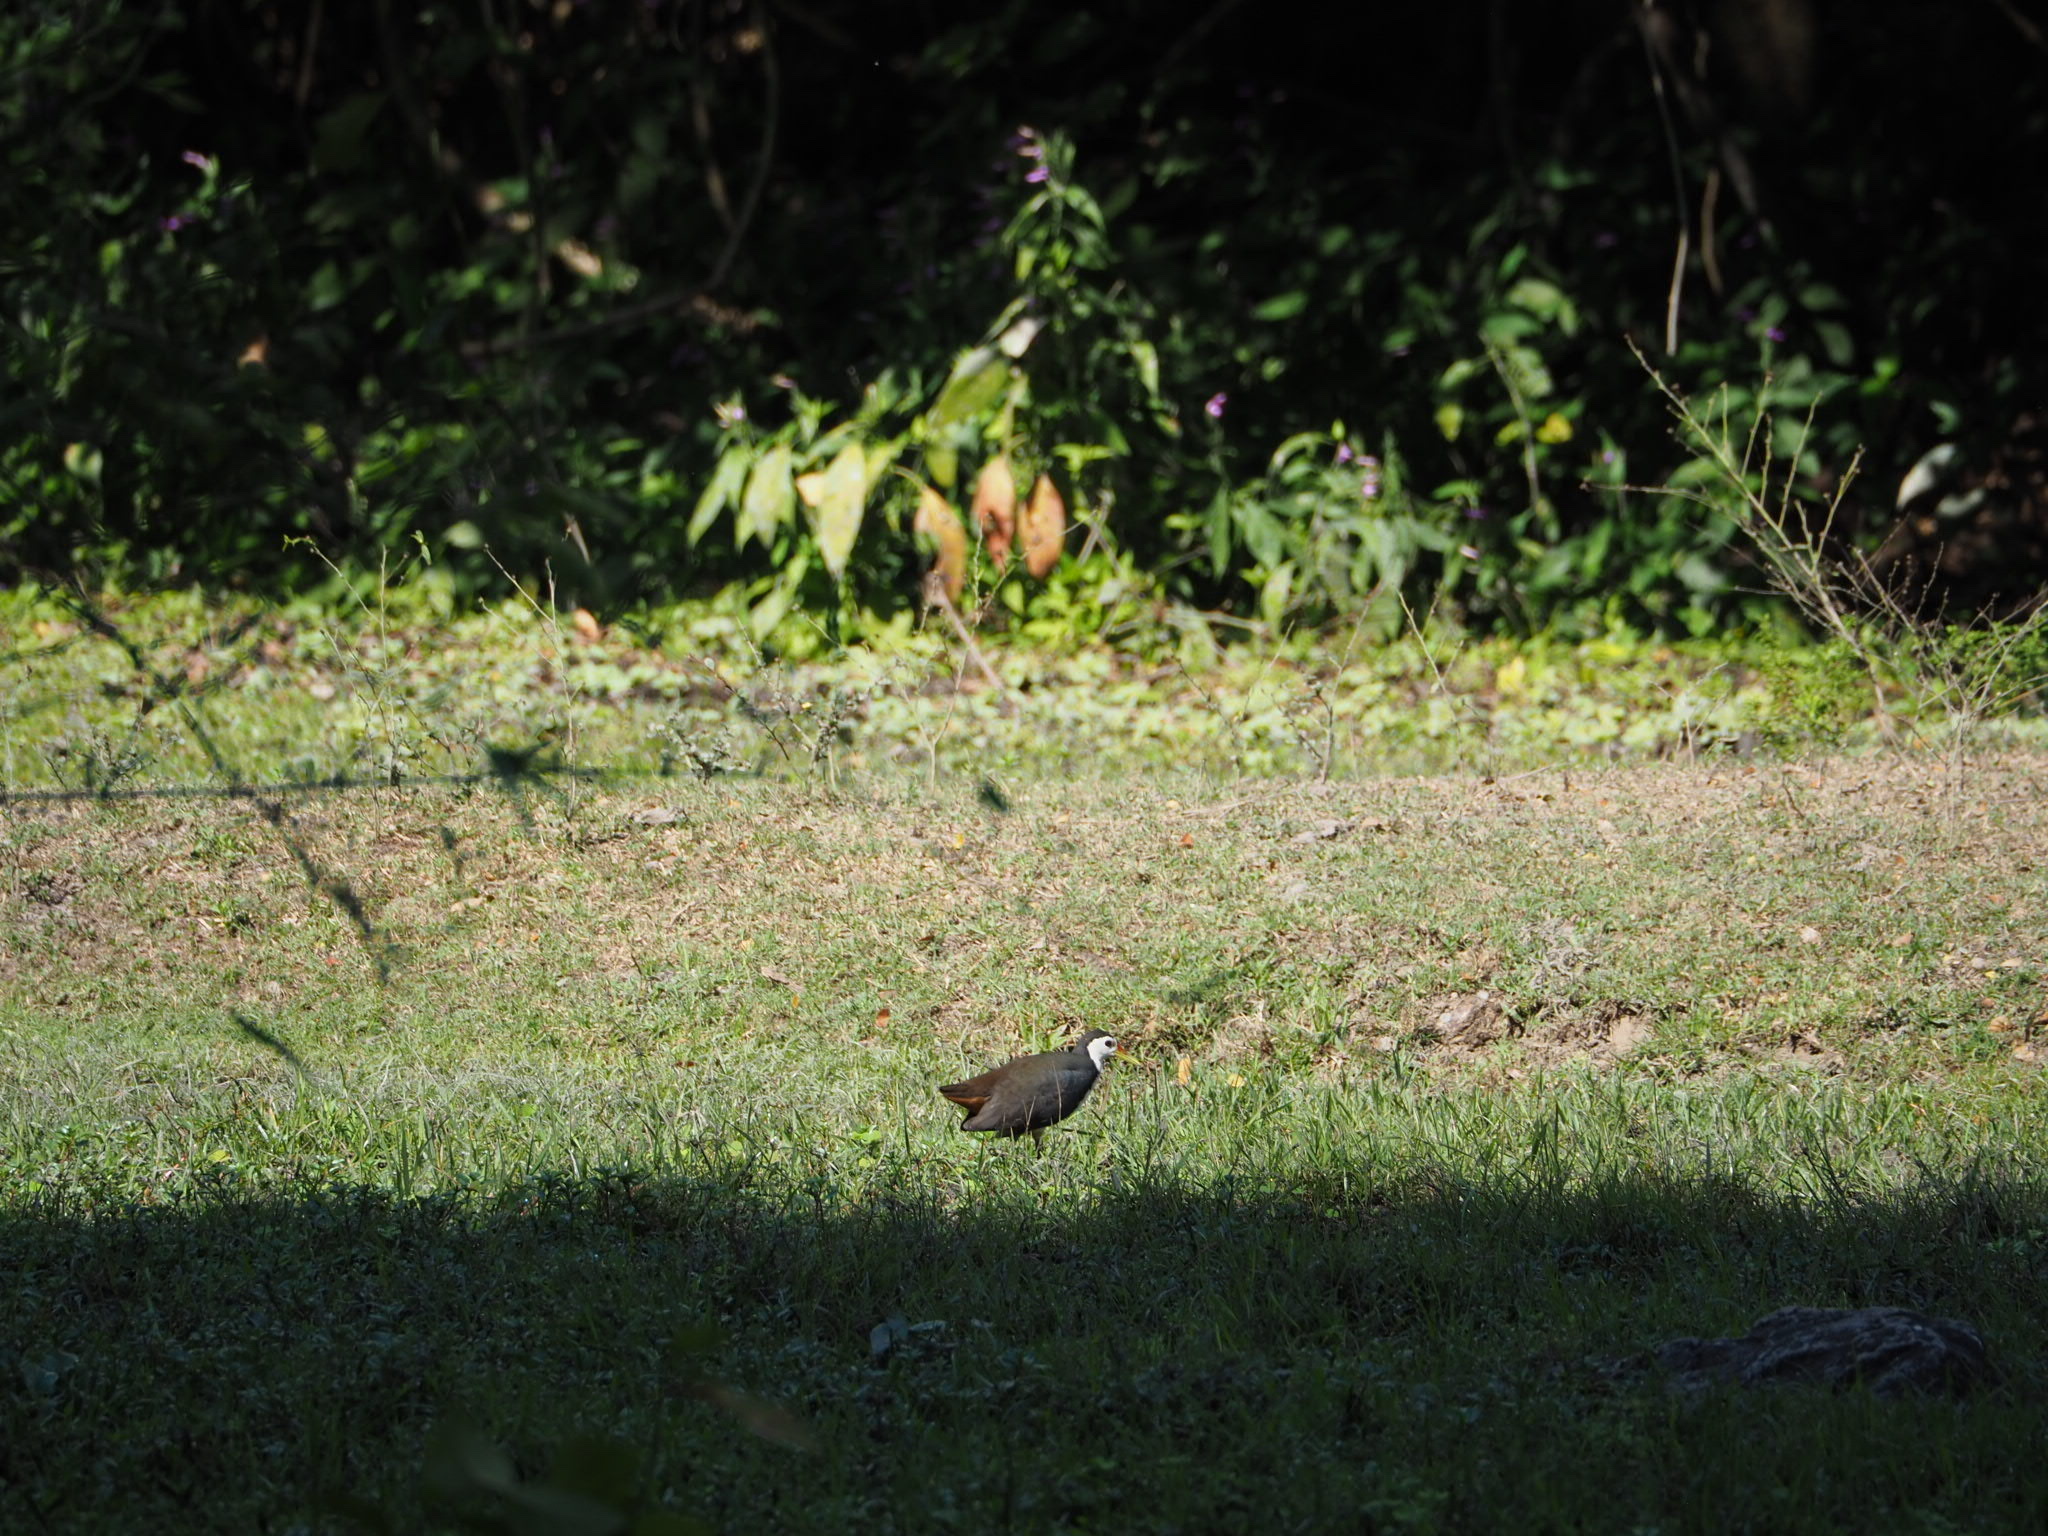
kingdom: Animalia
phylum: Chordata
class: Aves
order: Gruiformes
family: Rallidae
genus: Amaurornis
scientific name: Amaurornis phoenicurus
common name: White-breasted waterhen
